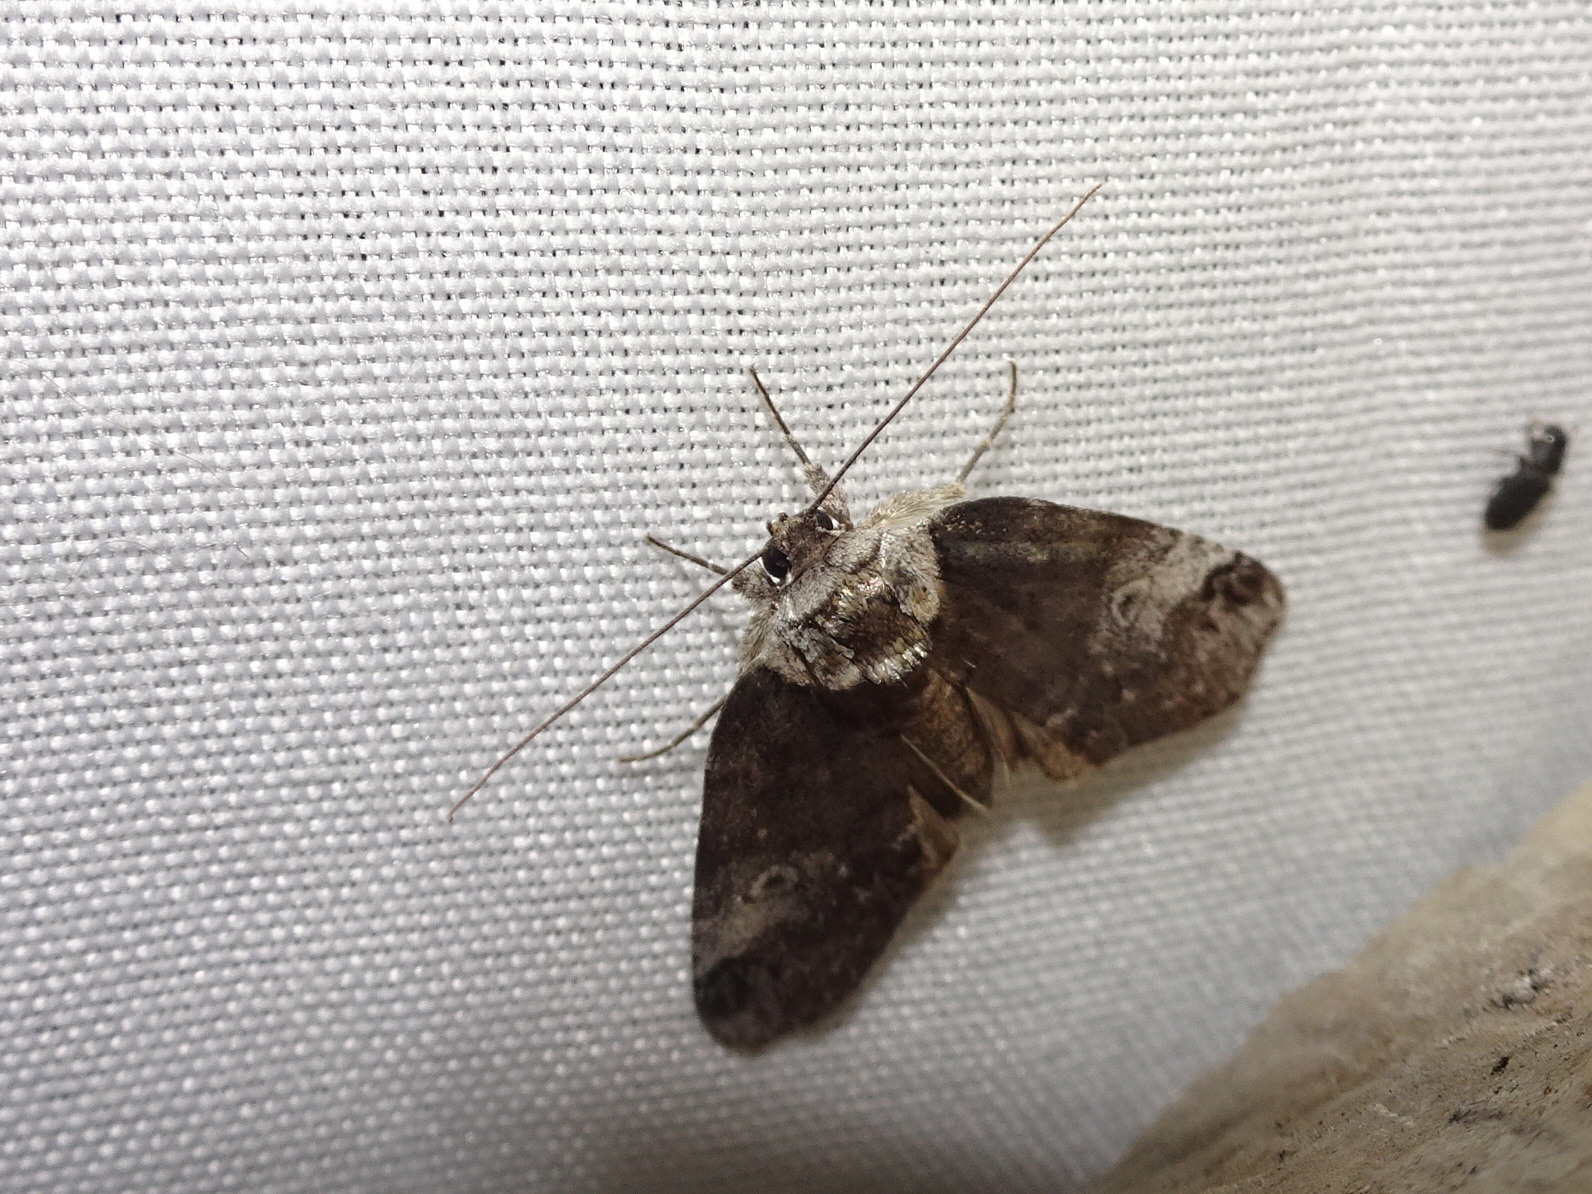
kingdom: Animalia
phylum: Arthropoda
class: Insecta
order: Lepidoptera
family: Nolidae
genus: Baileya
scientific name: Baileya levitans
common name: Pale baileya
